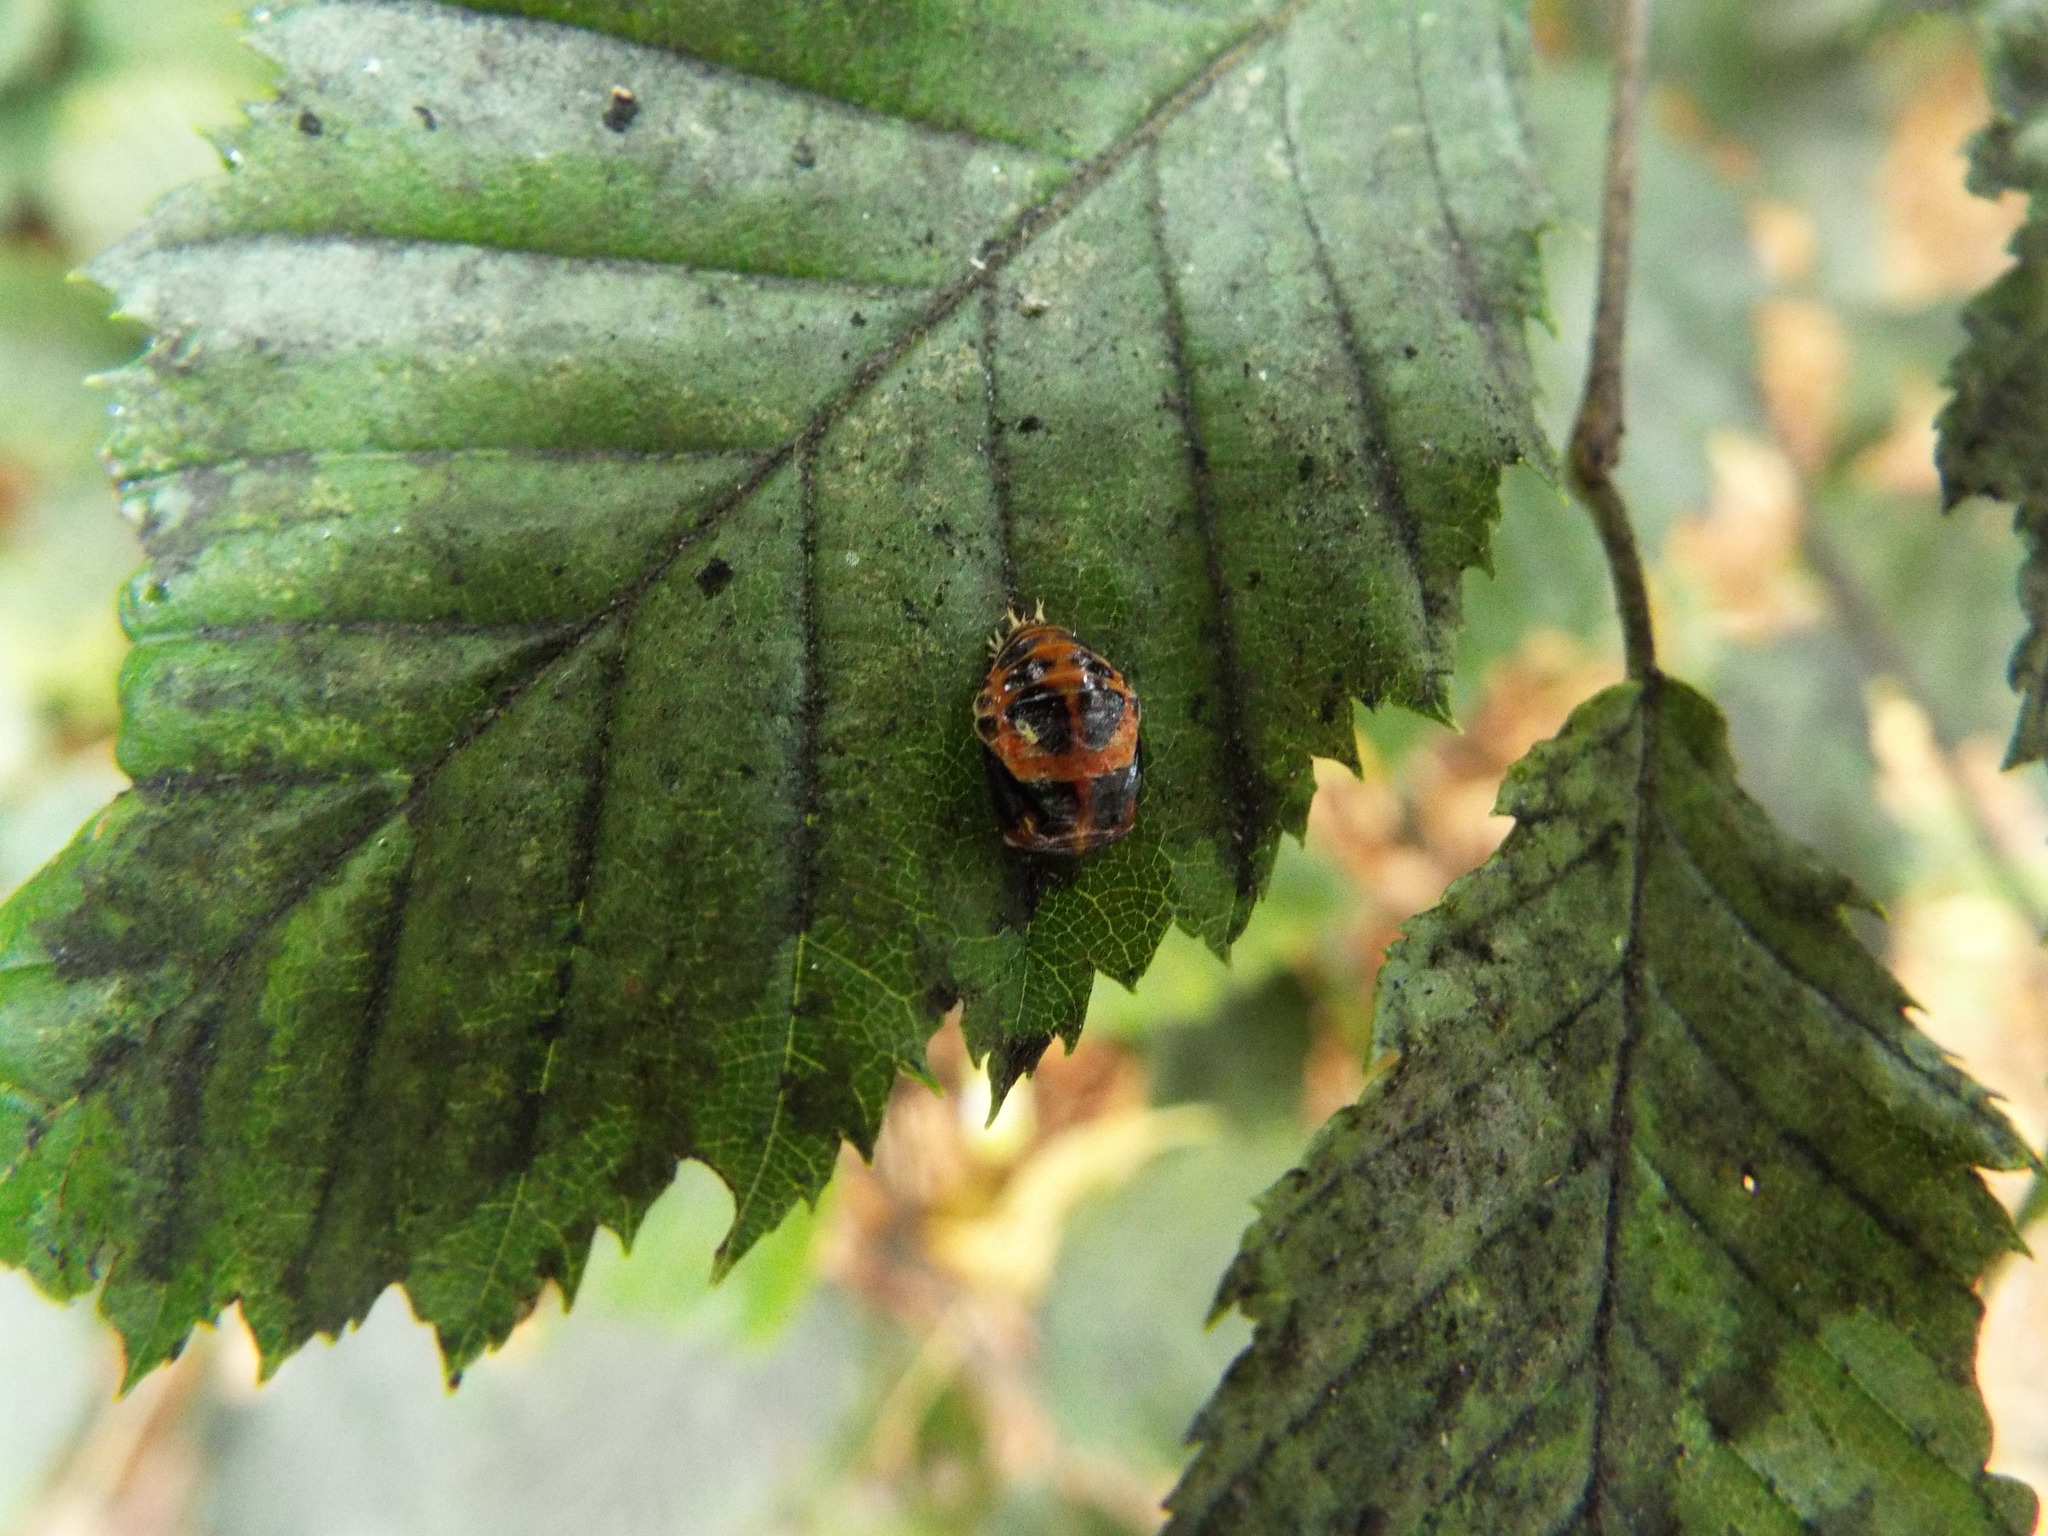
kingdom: Animalia
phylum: Arthropoda
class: Insecta
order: Coleoptera
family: Coccinellidae
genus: Harmonia
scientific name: Harmonia axyridis
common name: Harlequin ladybird
